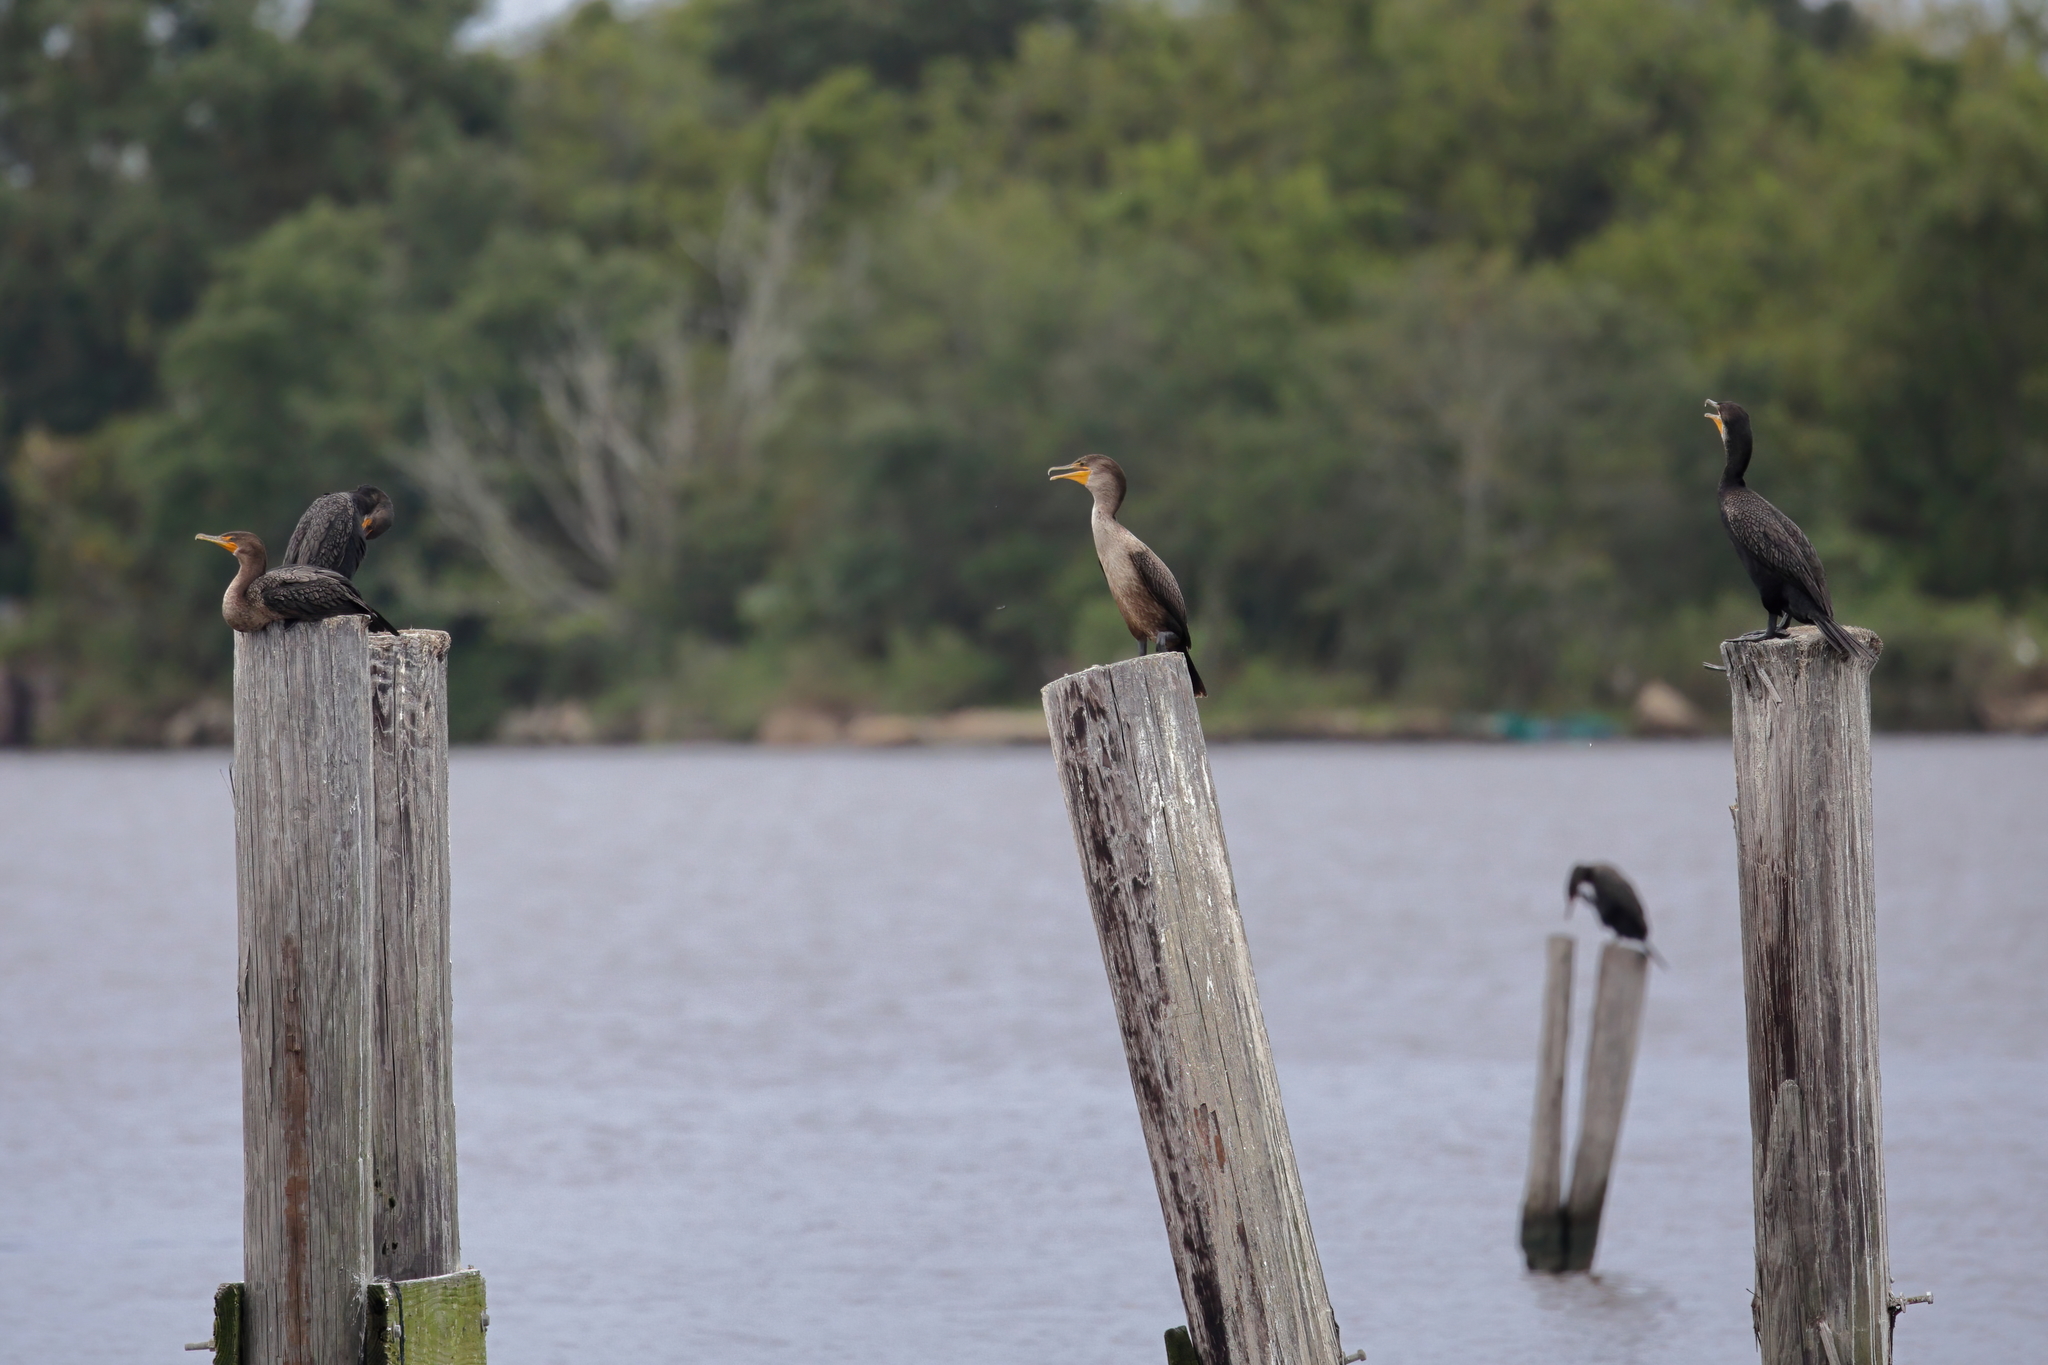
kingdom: Animalia
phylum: Chordata
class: Aves
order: Suliformes
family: Phalacrocoracidae
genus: Phalacrocorax
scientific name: Phalacrocorax auritus
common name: Double-crested cormorant
